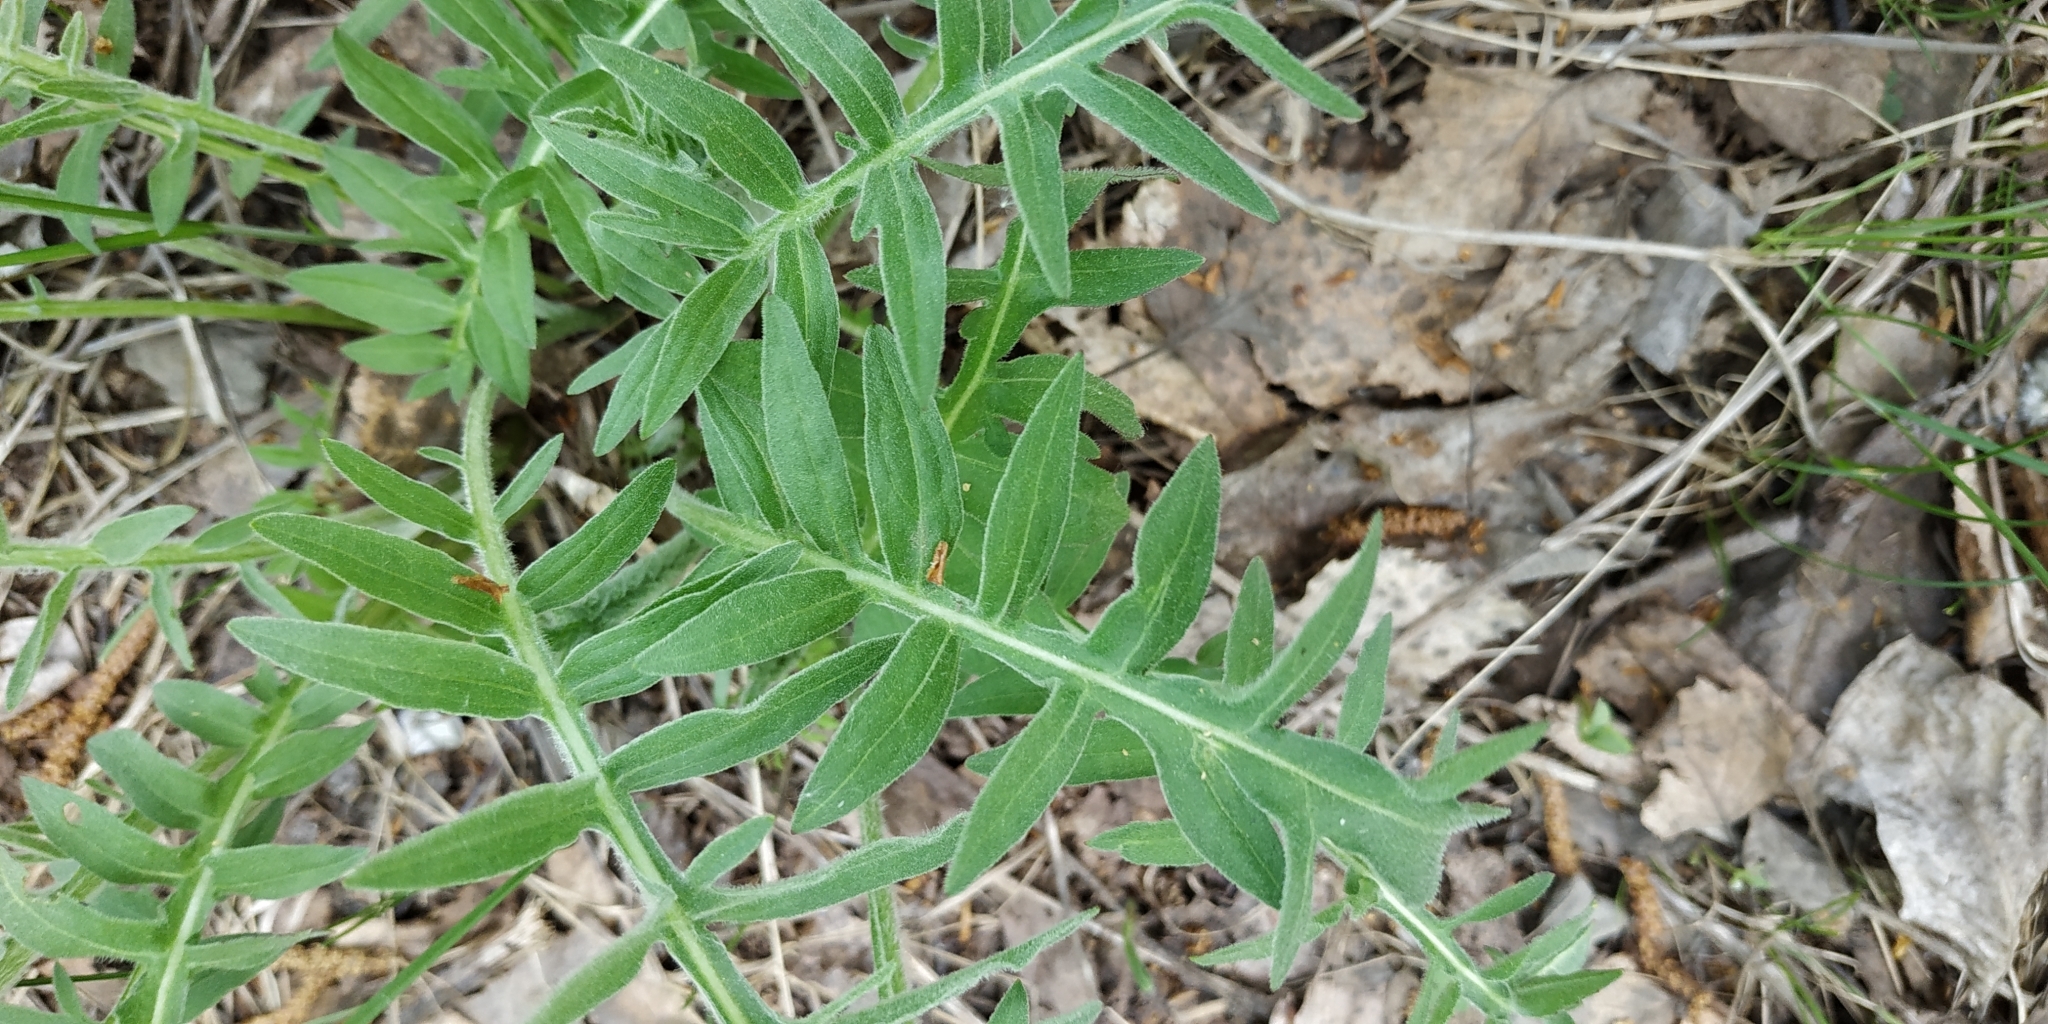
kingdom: Plantae
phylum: Tracheophyta
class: Magnoliopsida
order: Asterales
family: Asteraceae
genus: Centaurea
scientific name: Centaurea scabiosa
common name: Greater knapweed
